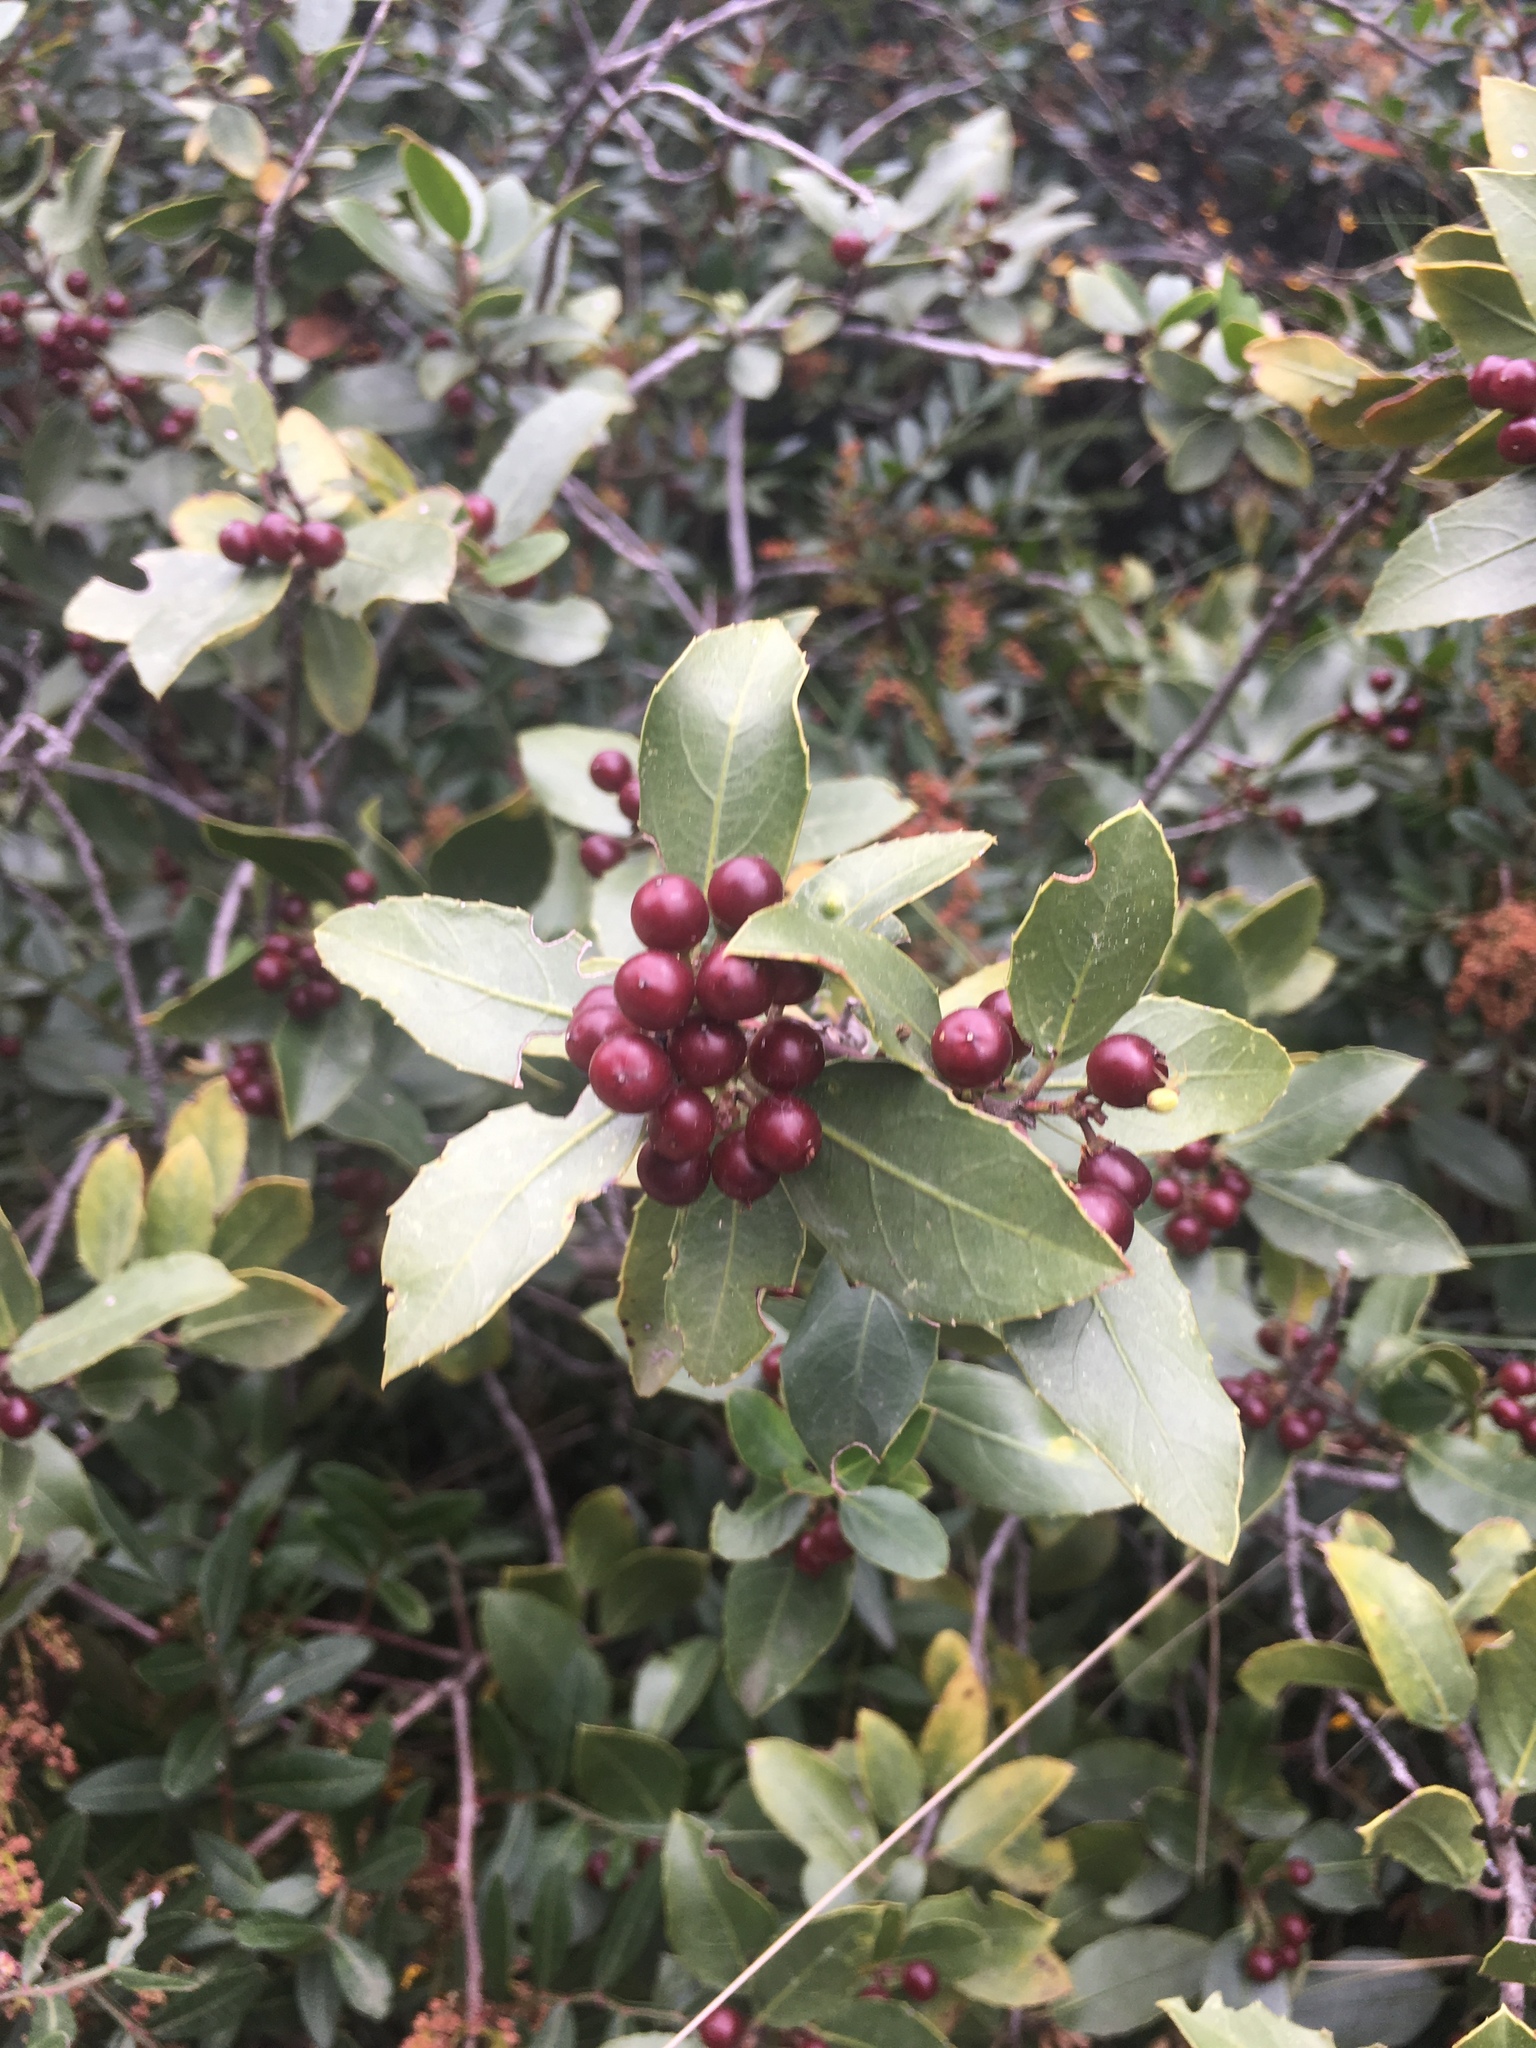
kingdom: Plantae
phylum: Tracheophyta
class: Magnoliopsida
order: Rosales
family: Rhamnaceae
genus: Rhamnus
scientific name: Rhamnus alaternus
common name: Mediterranean buckthorn
